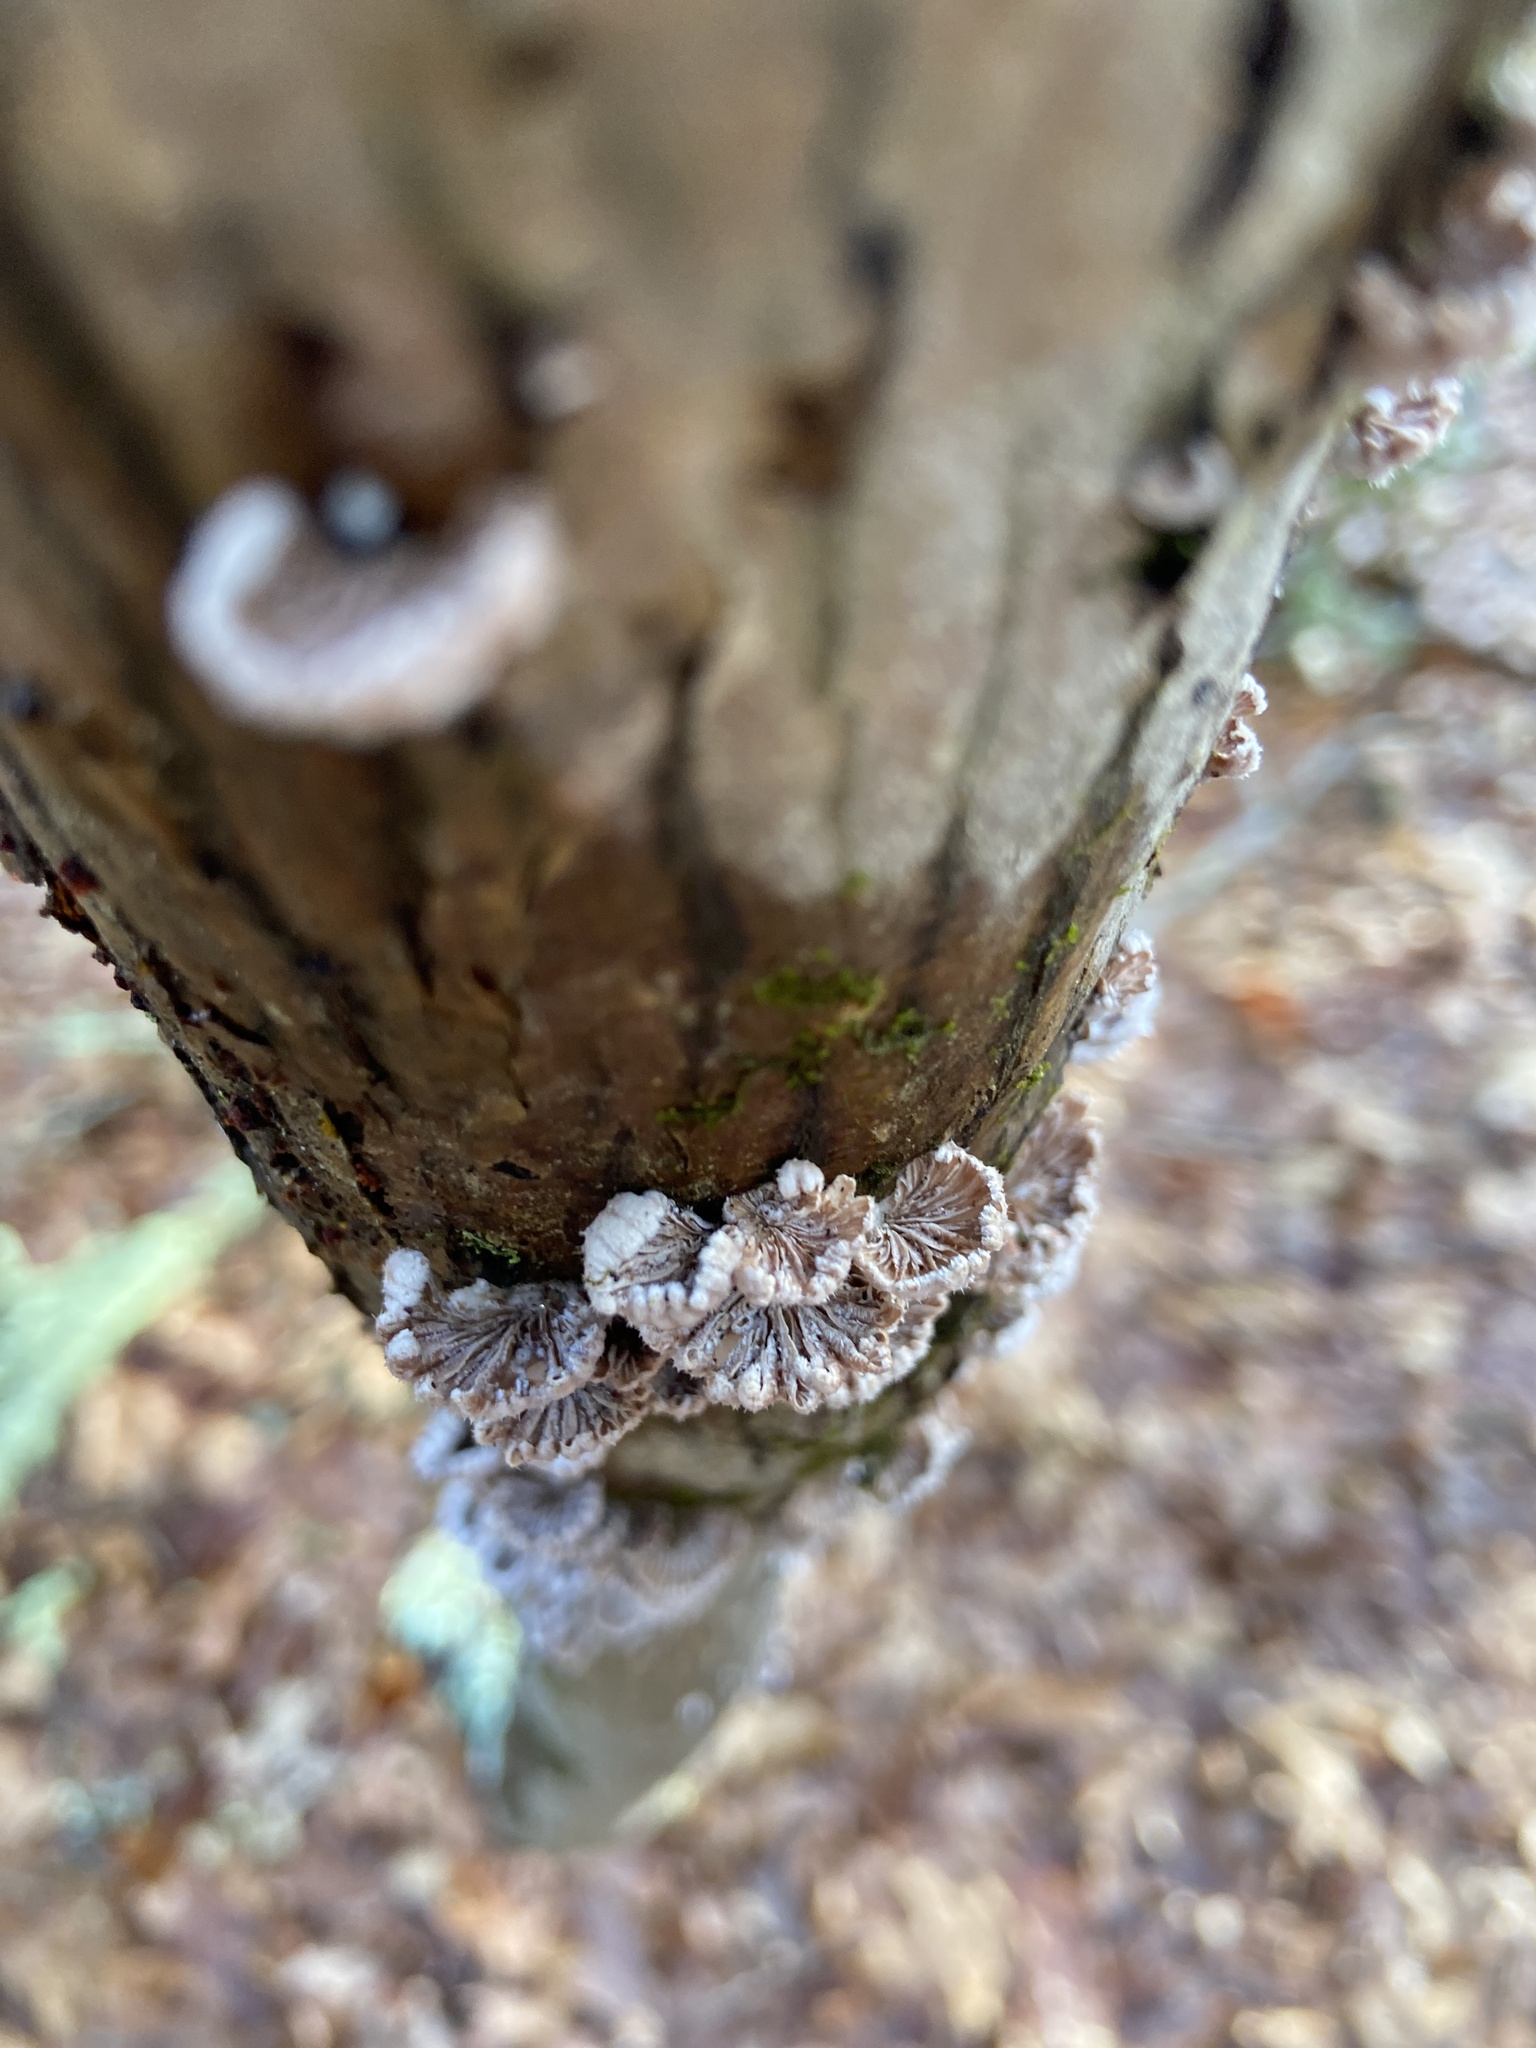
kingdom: Fungi
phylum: Basidiomycota
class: Agaricomycetes
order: Agaricales
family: Schizophyllaceae
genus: Schizophyllum
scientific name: Schizophyllum commune
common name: Common porecrust
